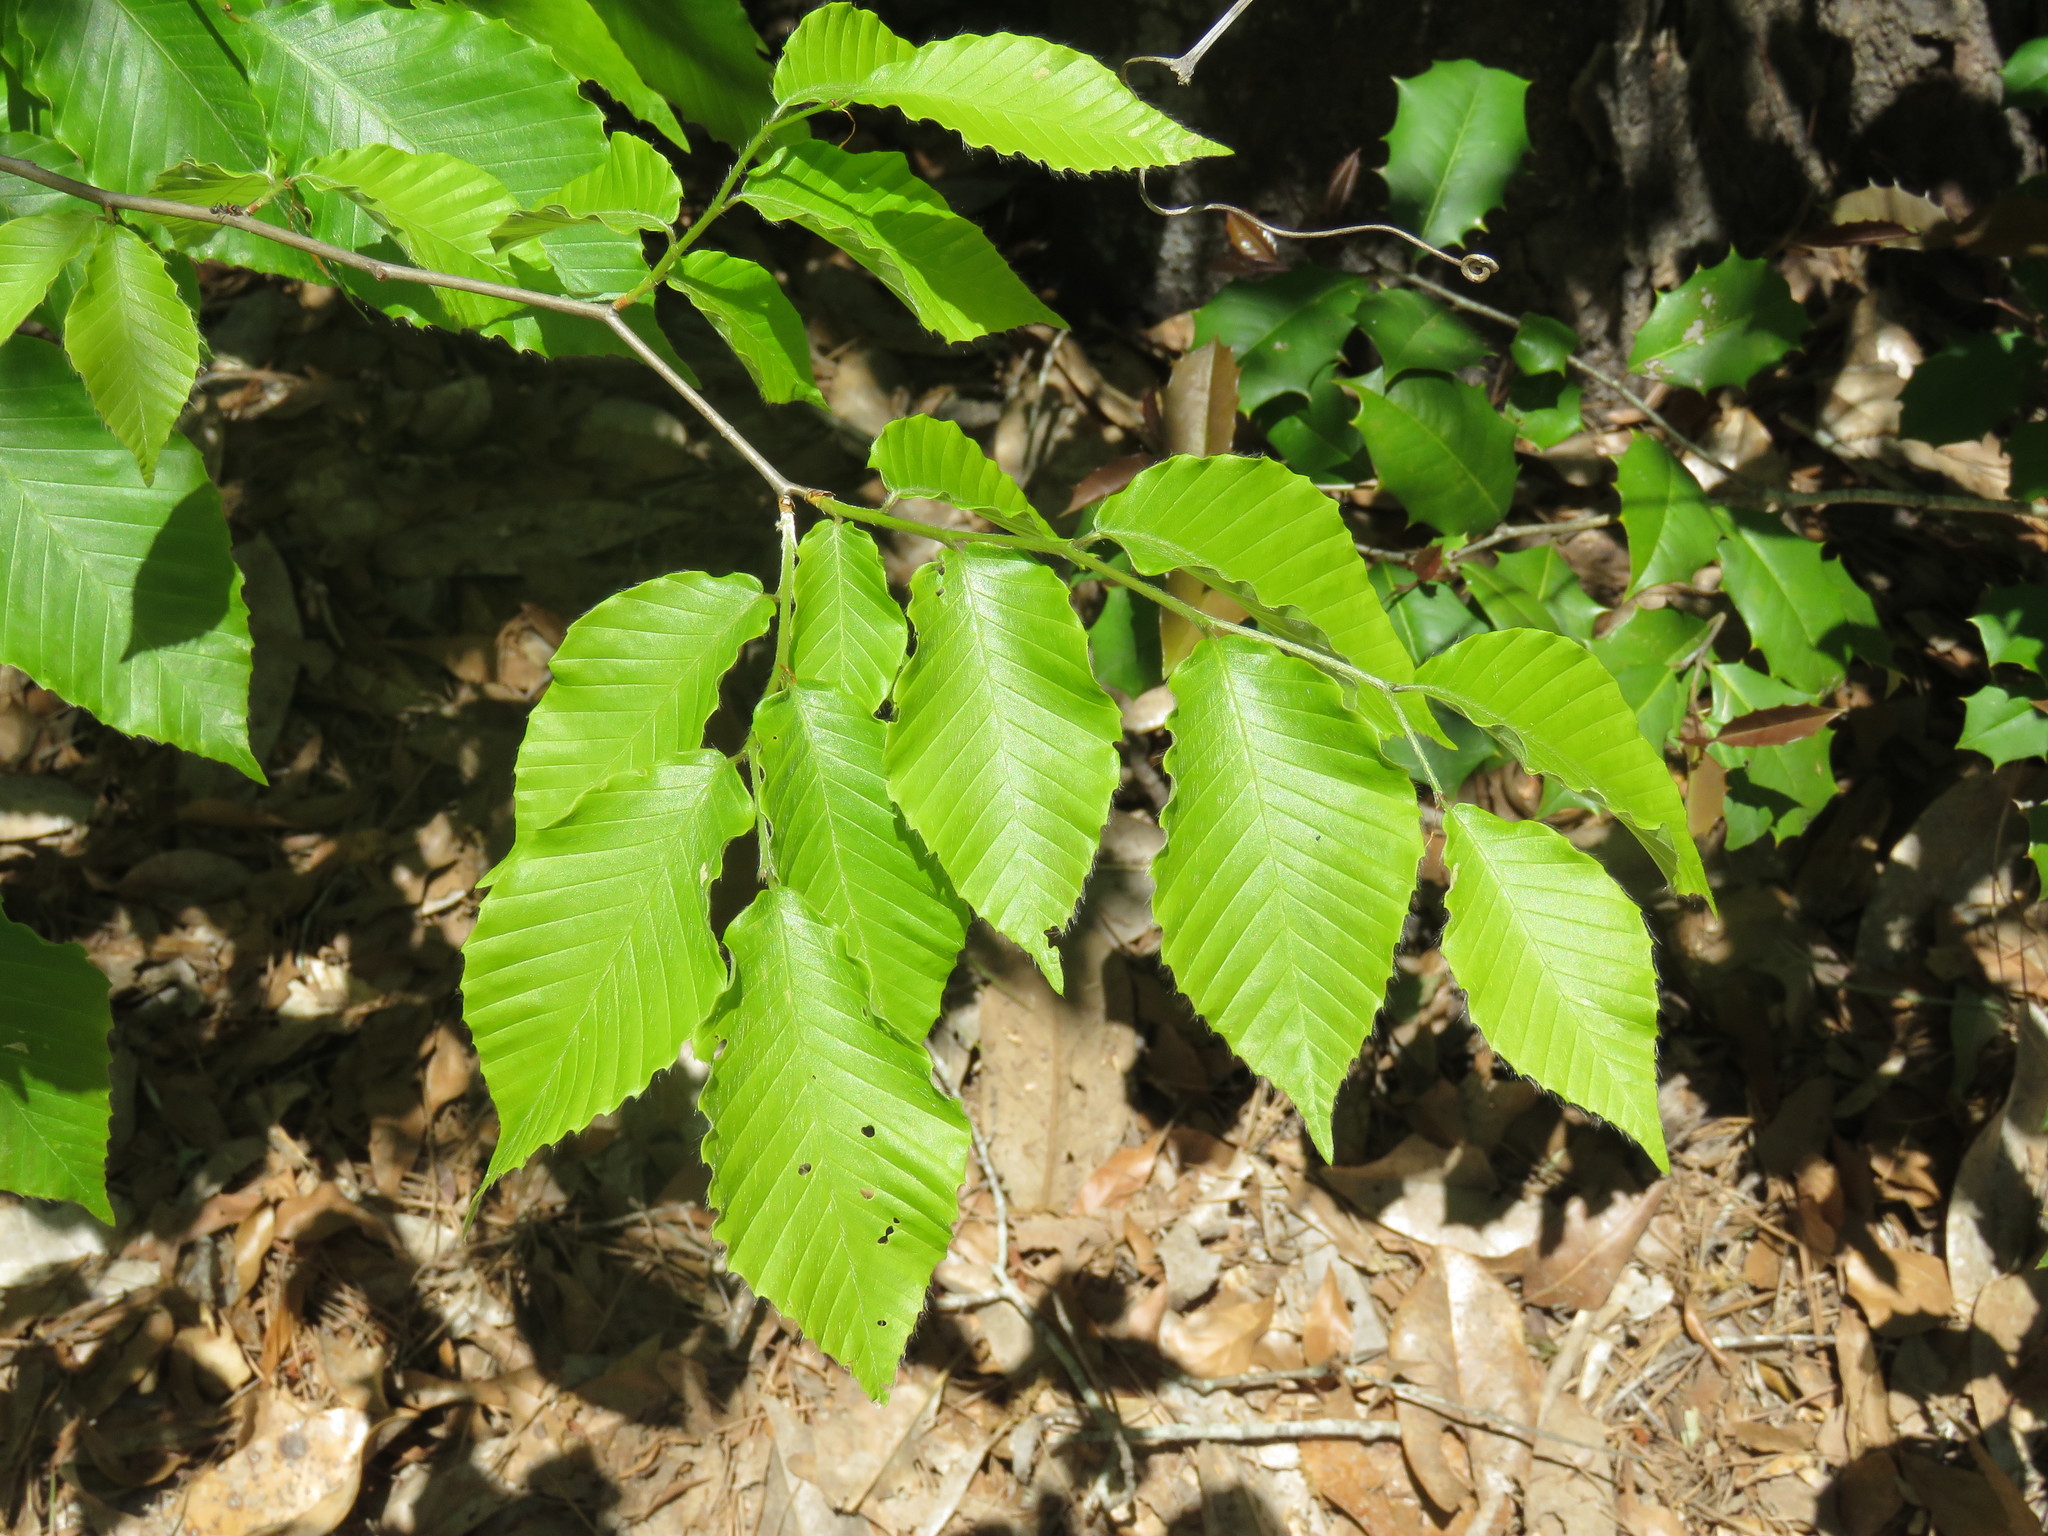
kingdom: Plantae
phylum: Tracheophyta
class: Magnoliopsida
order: Fagales
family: Fagaceae
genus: Fagus
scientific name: Fagus grandifolia
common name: American beech
